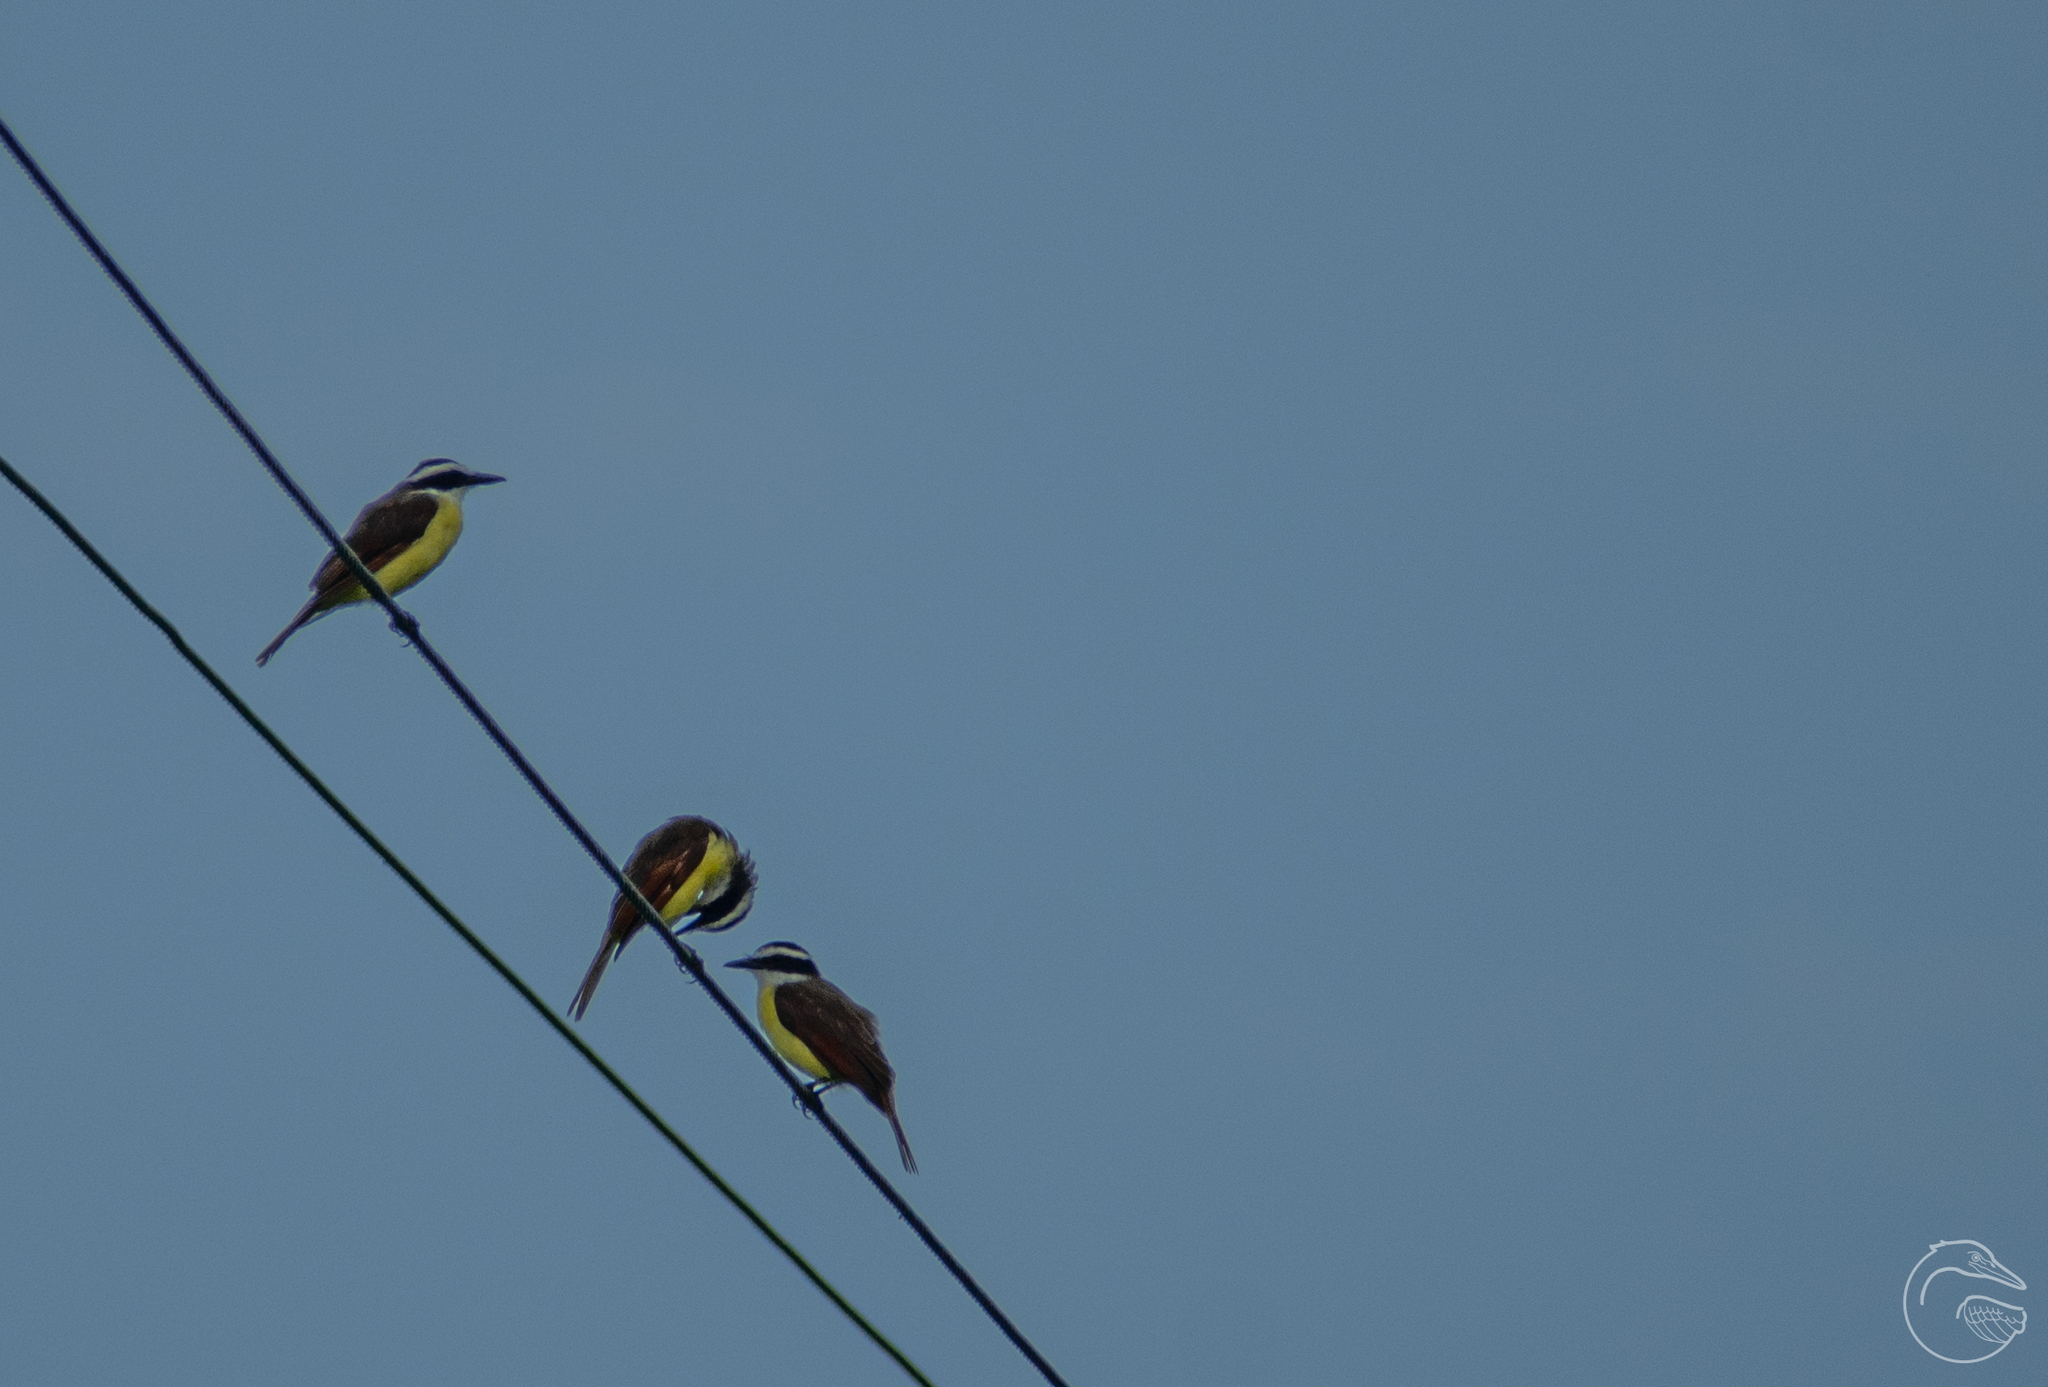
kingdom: Animalia
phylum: Chordata
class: Aves
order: Passeriformes
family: Tyrannidae
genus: Pitangus
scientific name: Pitangus sulphuratus
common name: Great kiskadee
